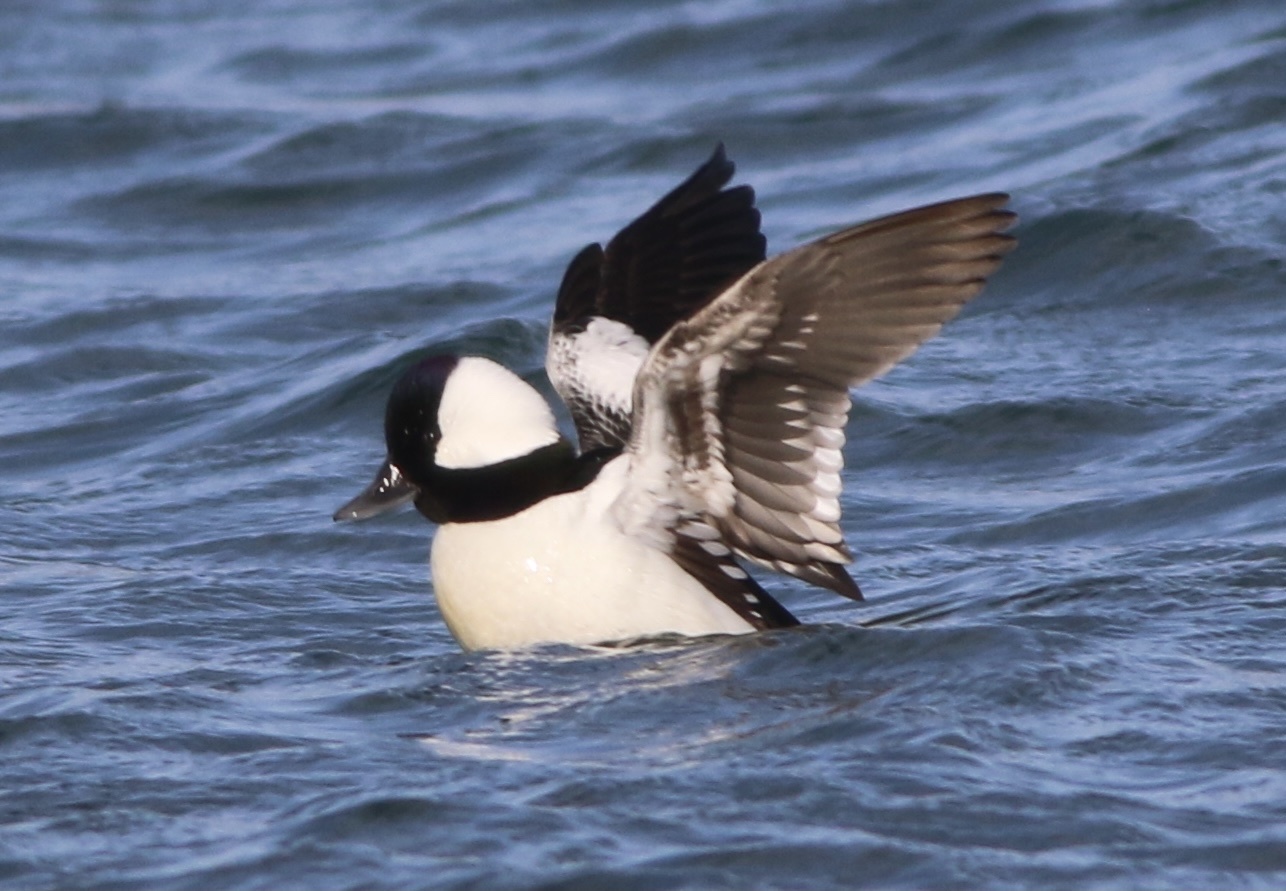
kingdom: Animalia
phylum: Chordata
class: Aves
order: Anseriformes
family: Anatidae
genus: Bucephala
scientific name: Bucephala albeola
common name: Bufflehead
